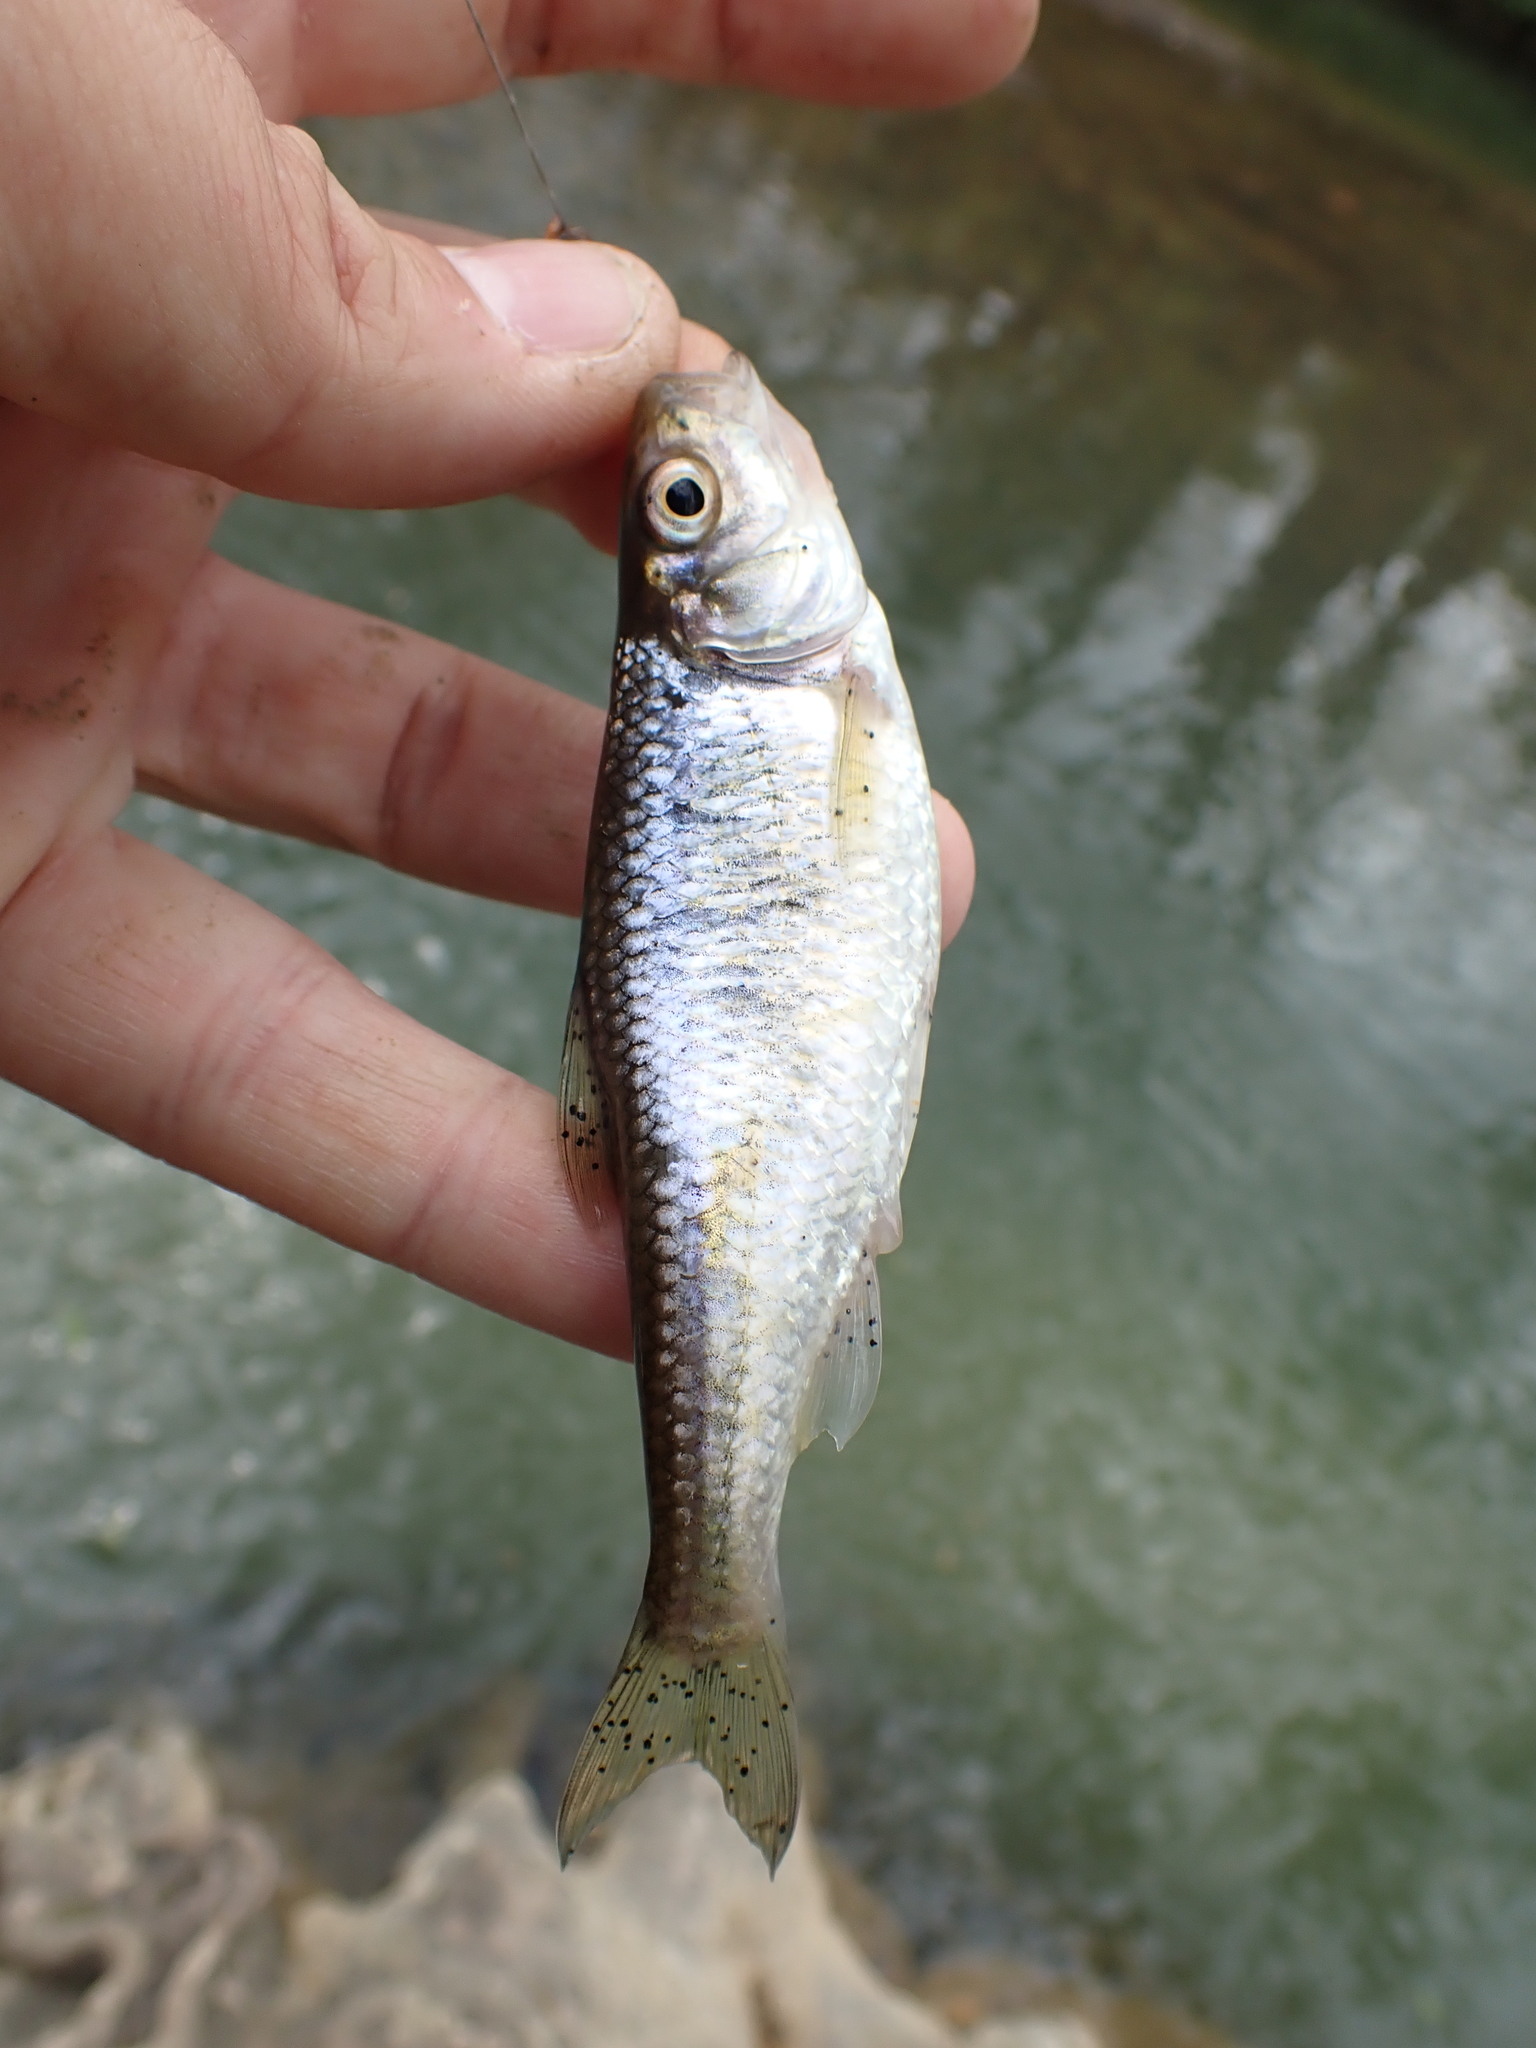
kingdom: Animalia
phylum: Chordata
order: Cypriniformes
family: Cyprinidae
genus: Luxilus
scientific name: Luxilus chrysocephalus
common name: Striped shiner
